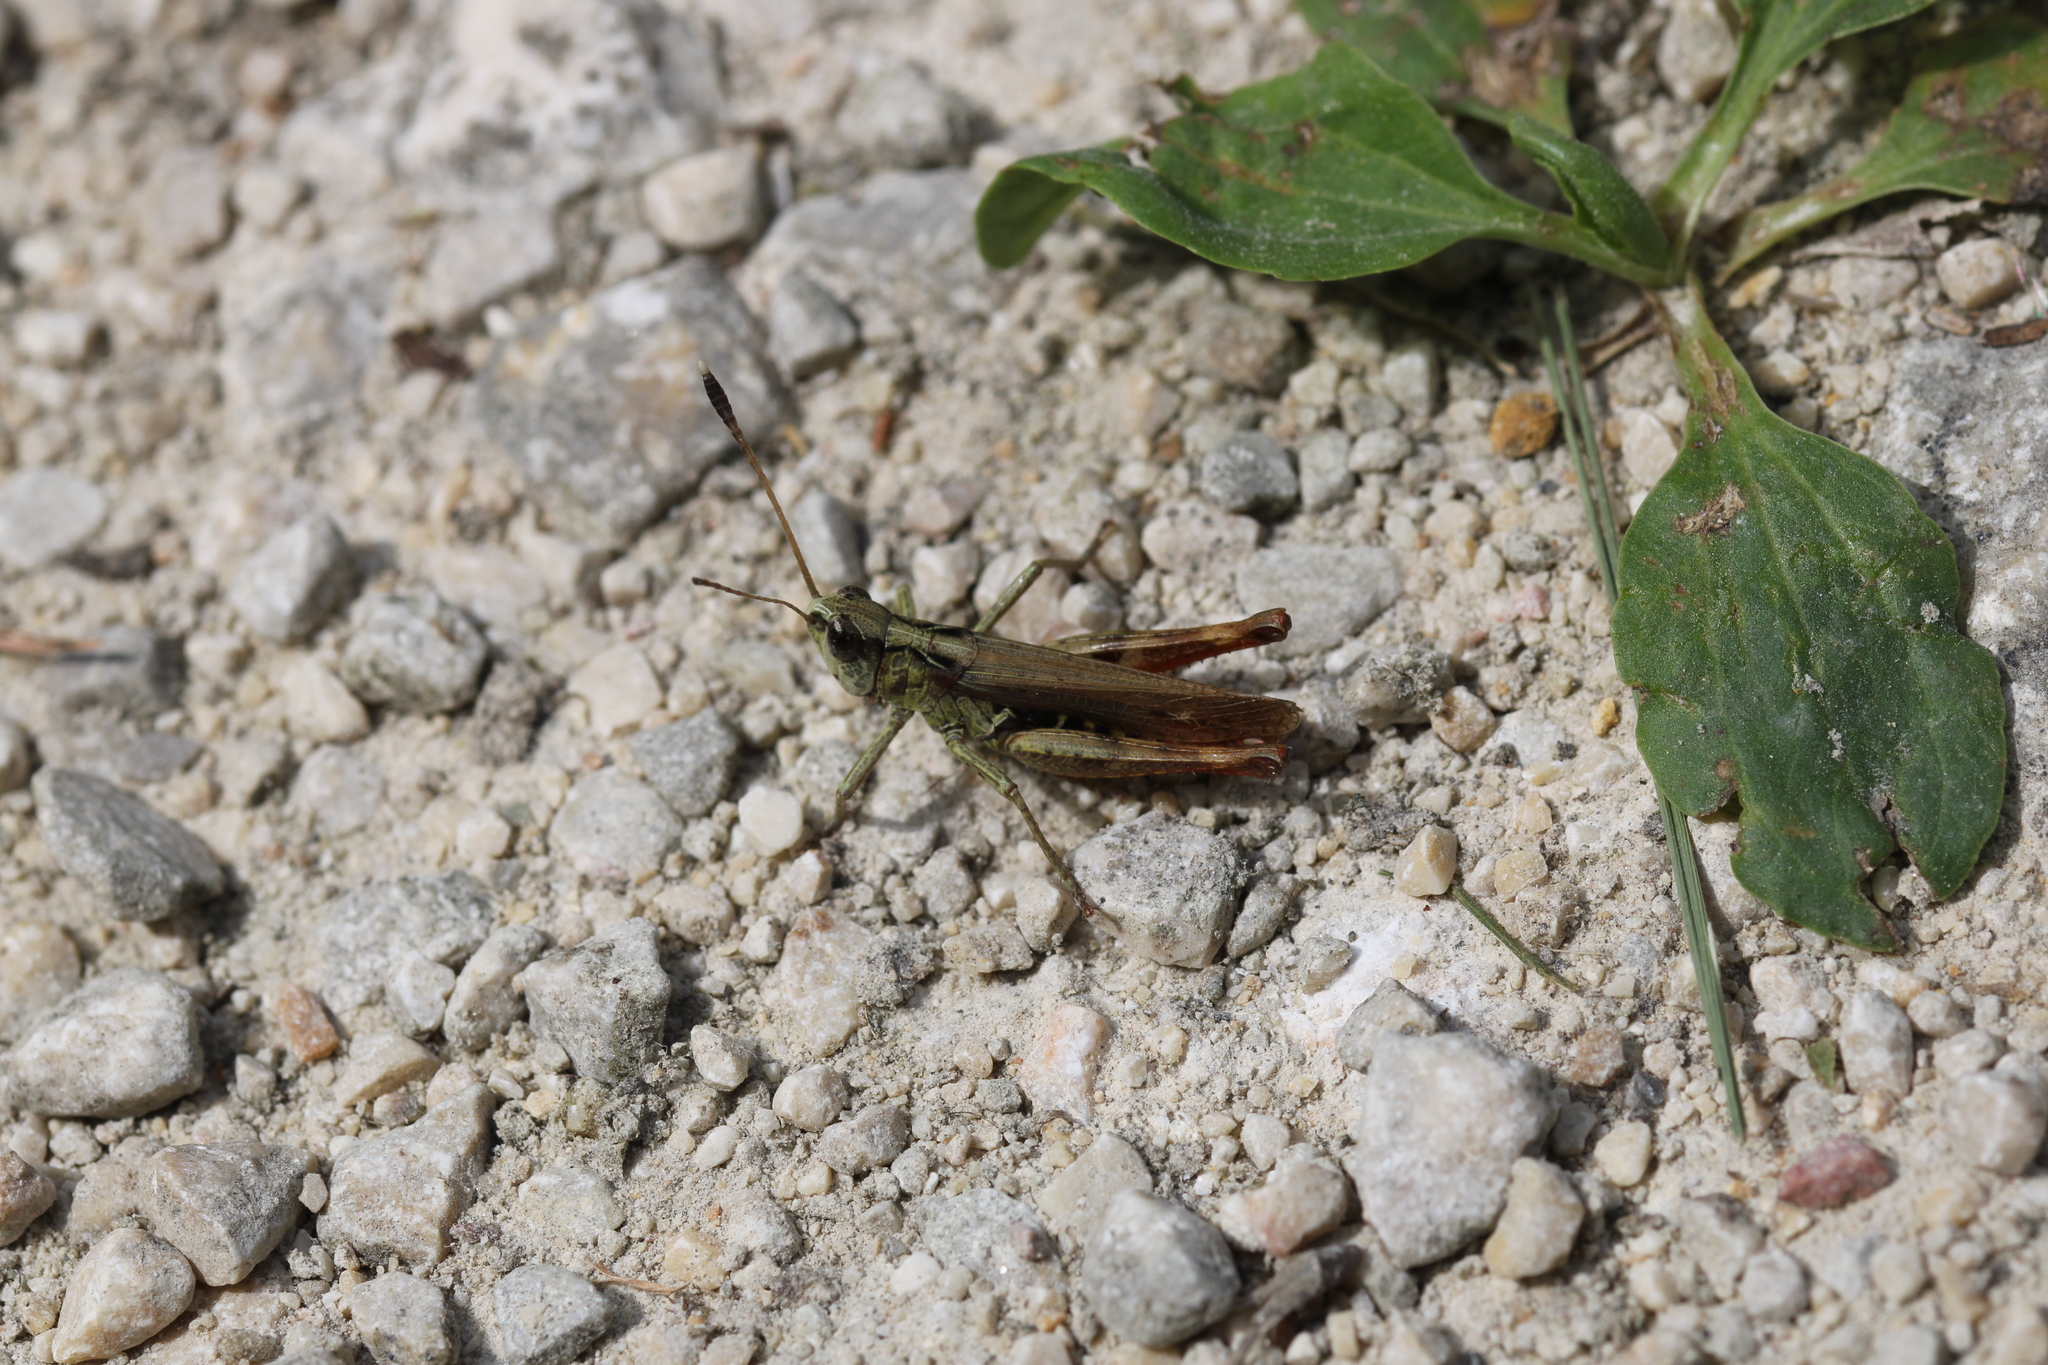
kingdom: Animalia
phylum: Arthropoda
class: Insecta
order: Orthoptera
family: Acrididae
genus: Gomphocerippus
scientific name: Gomphocerippus rufus
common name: Rufous grasshopper
